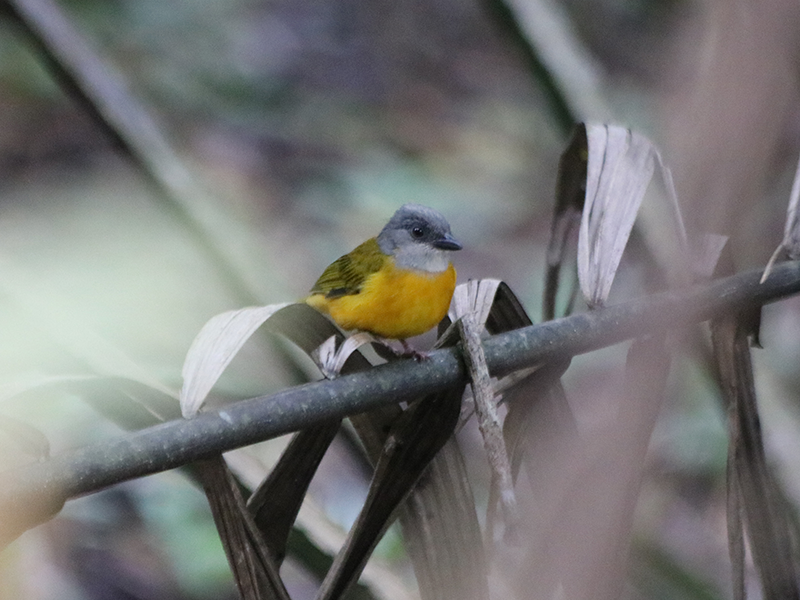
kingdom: Animalia
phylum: Chordata
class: Aves
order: Passeriformes
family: Thraupidae
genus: Eucometis
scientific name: Eucometis penicillata
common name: Grey-headed tanager
